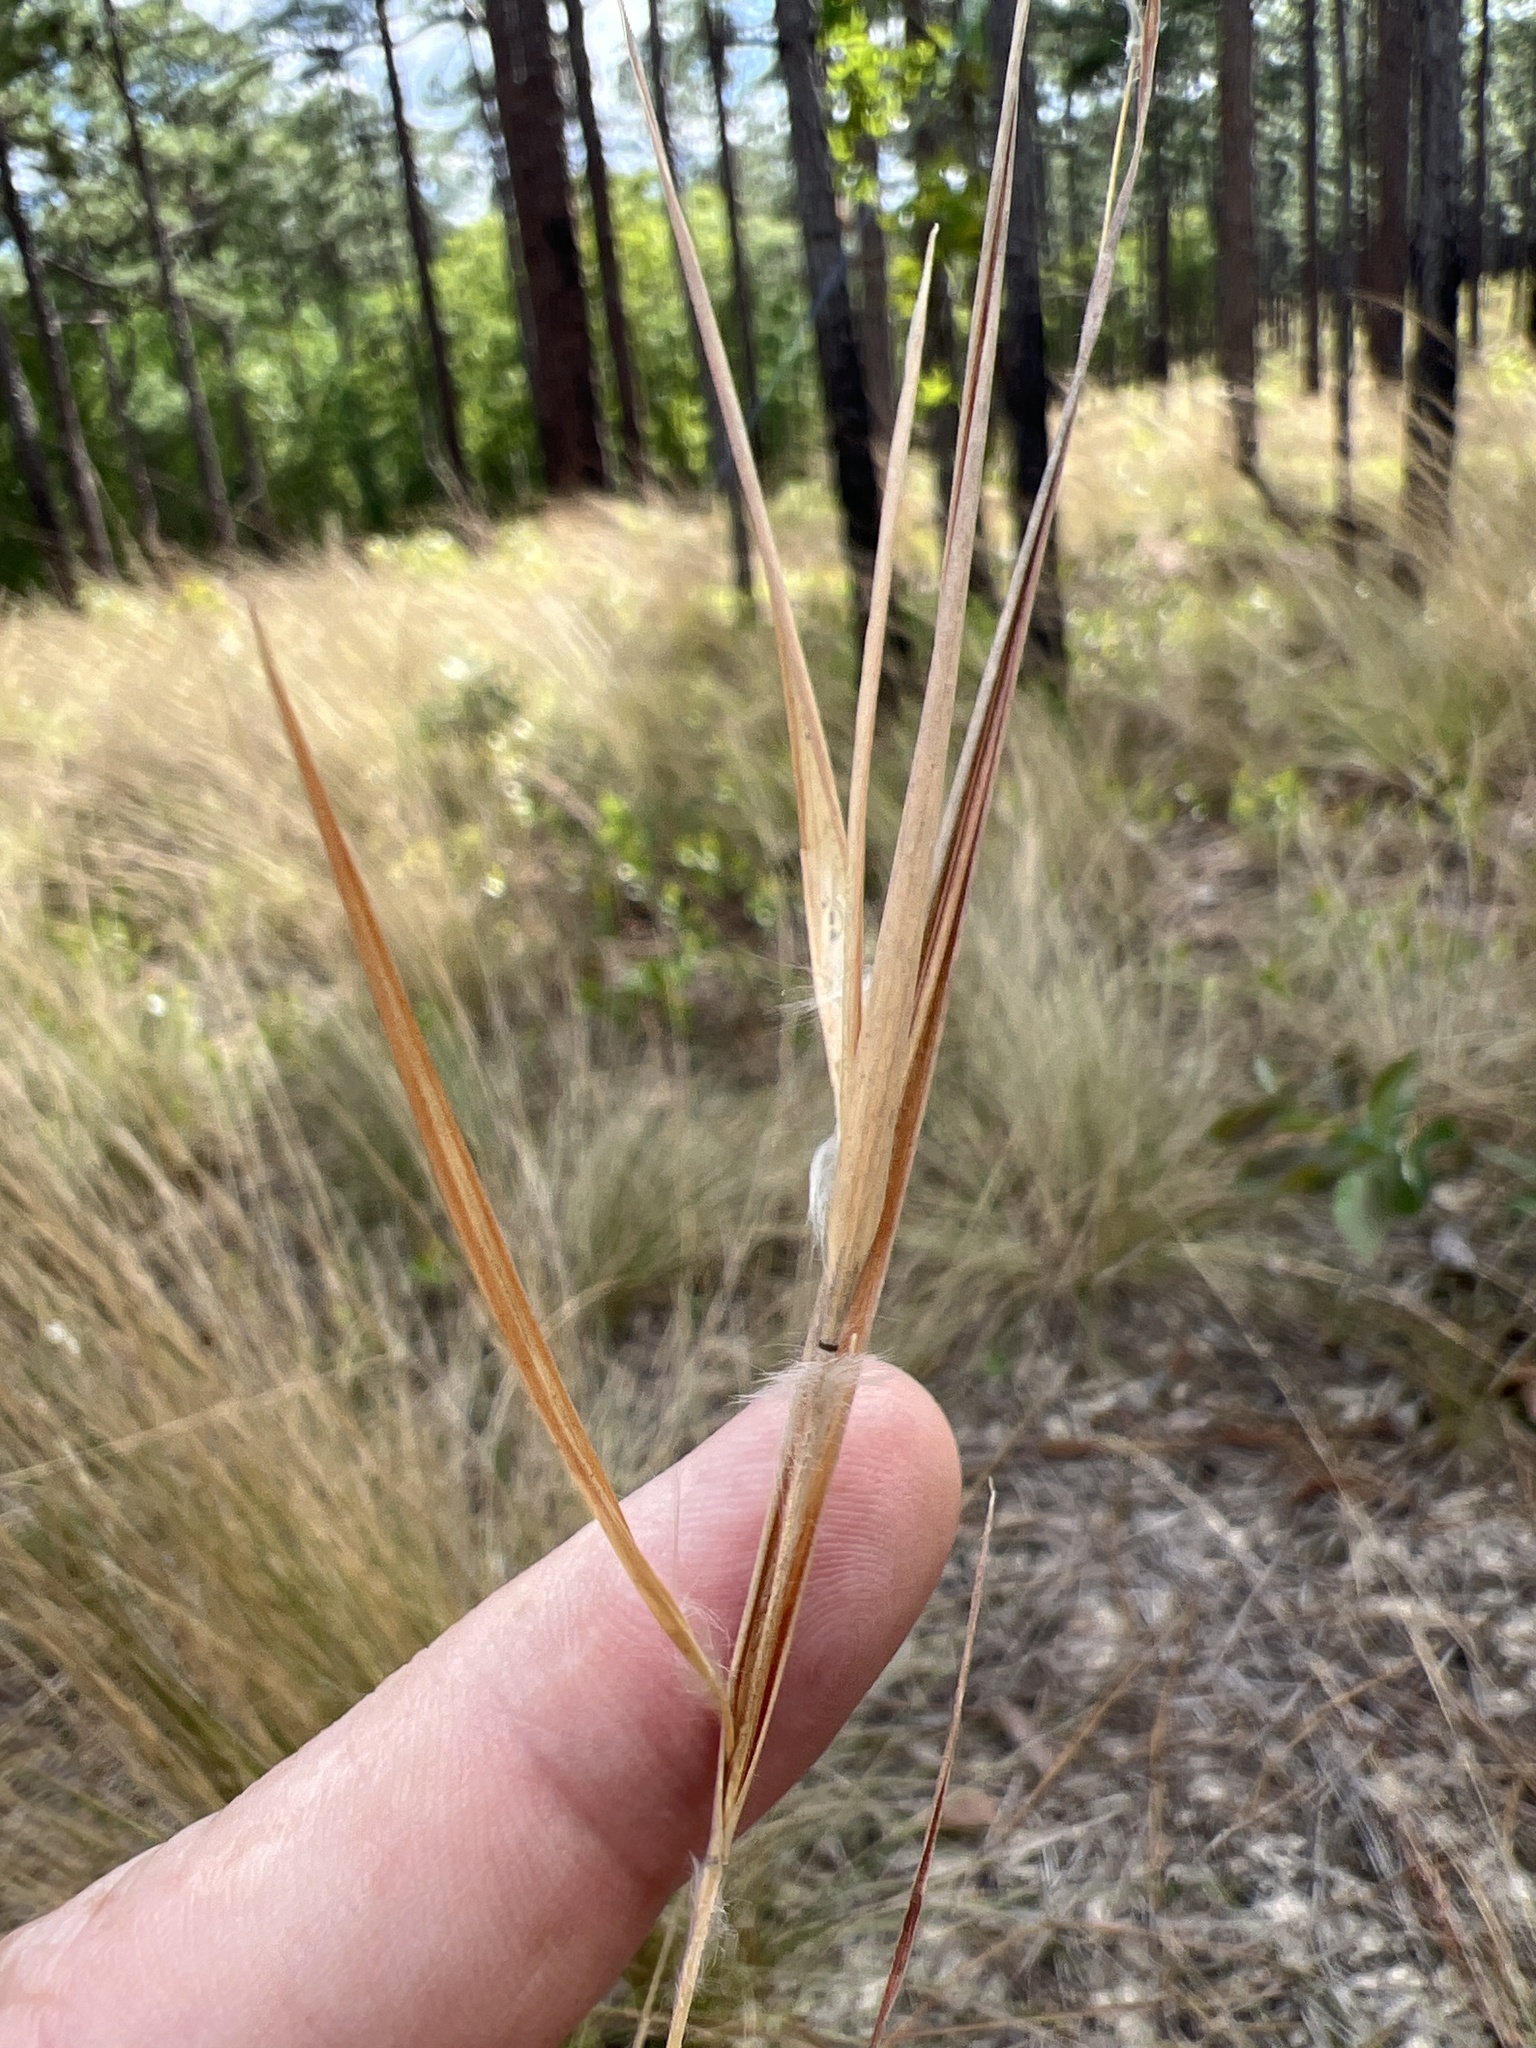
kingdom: Plantae
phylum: Tracheophyta
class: Liliopsida
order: Poales
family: Poaceae
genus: Andropogon
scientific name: Andropogon gyrans
